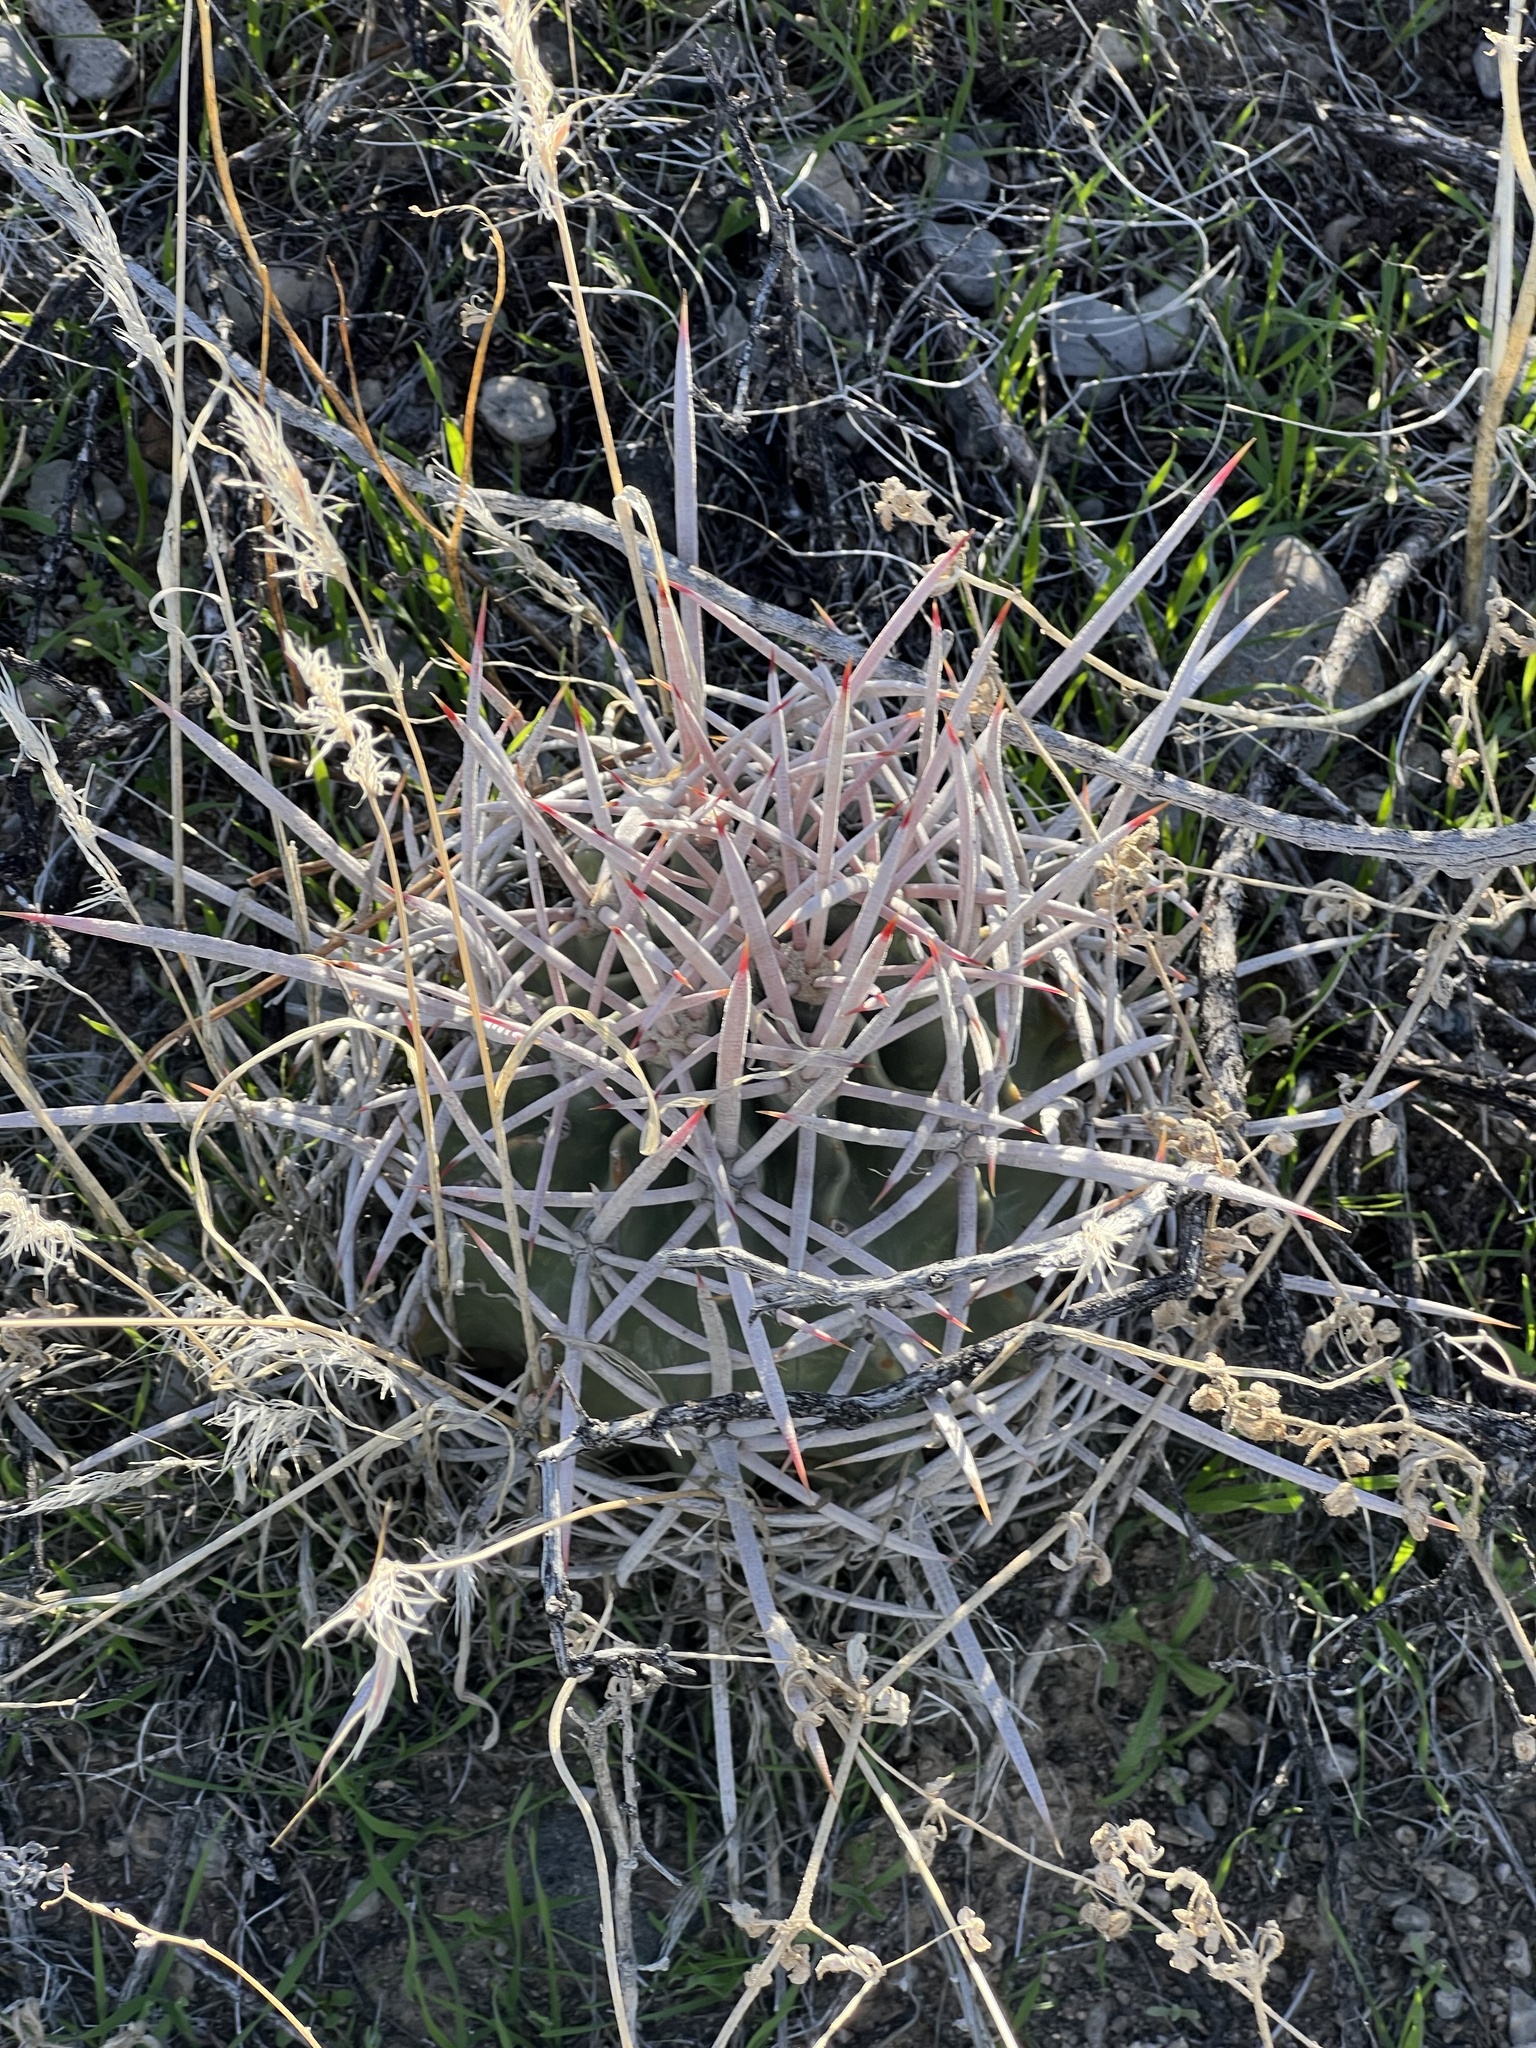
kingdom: Plantae
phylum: Tracheophyta
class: Magnoliopsida
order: Caryophyllales
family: Cactaceae
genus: Echinocactus
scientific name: Echinocactus polycephalus
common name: Cottontop cactus
